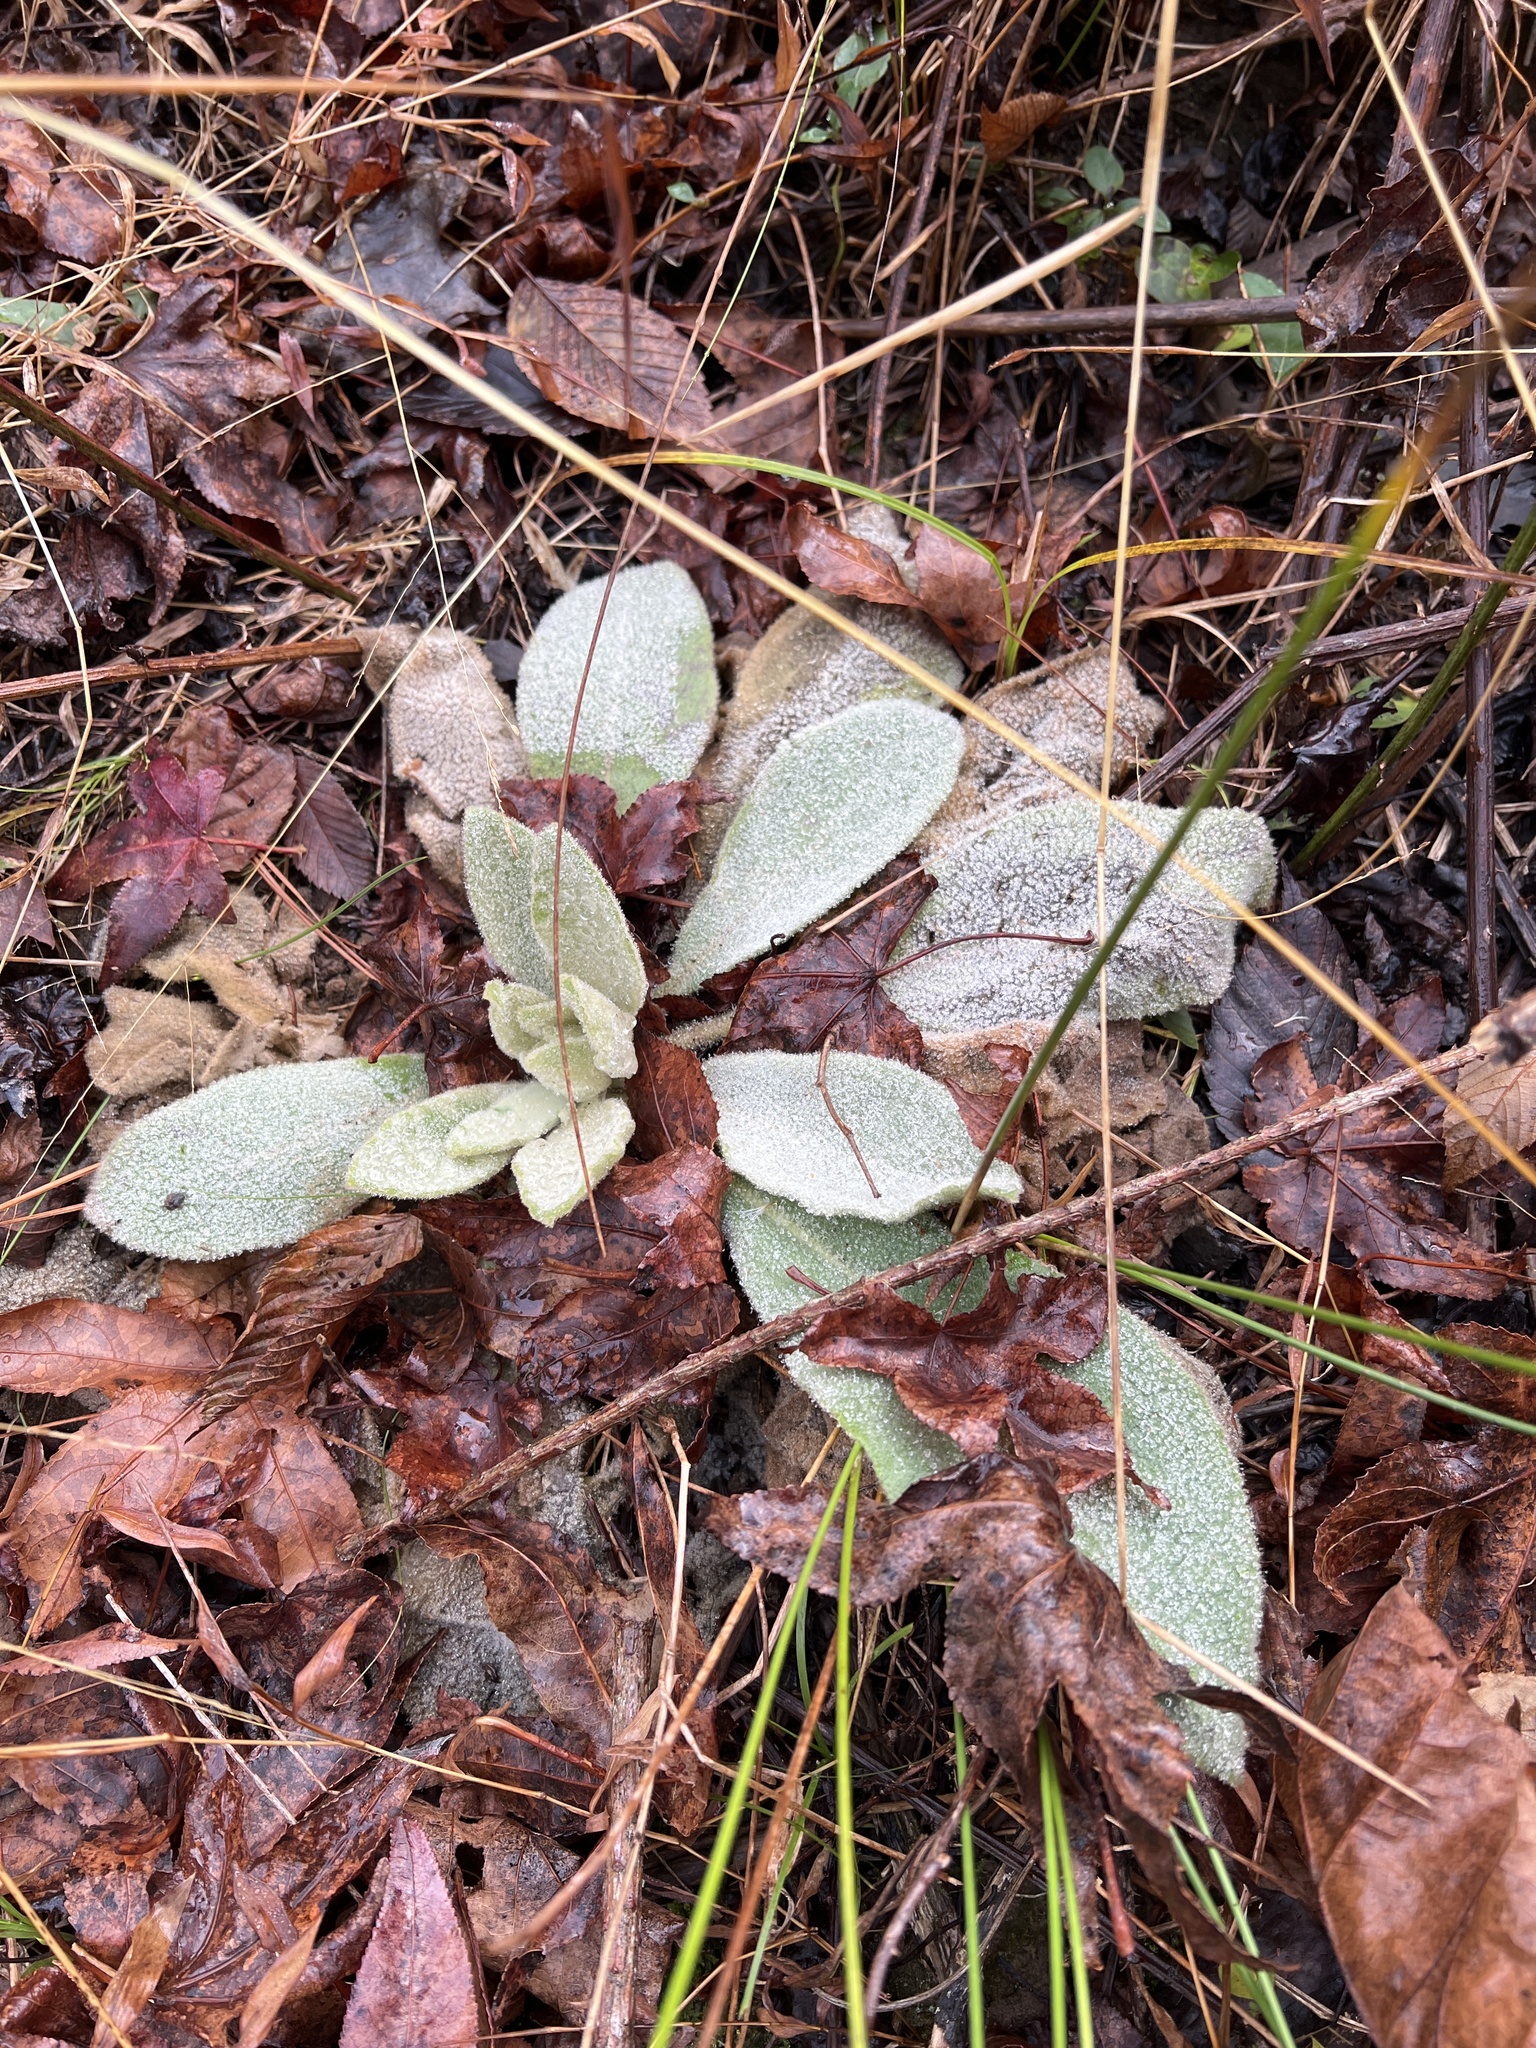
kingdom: Plantae
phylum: Tracheophyta
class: Magnoliopsida
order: Lamiales
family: Scrophulariaceae
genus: Verbascum
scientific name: Verbascum thapsus
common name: Common mullein
